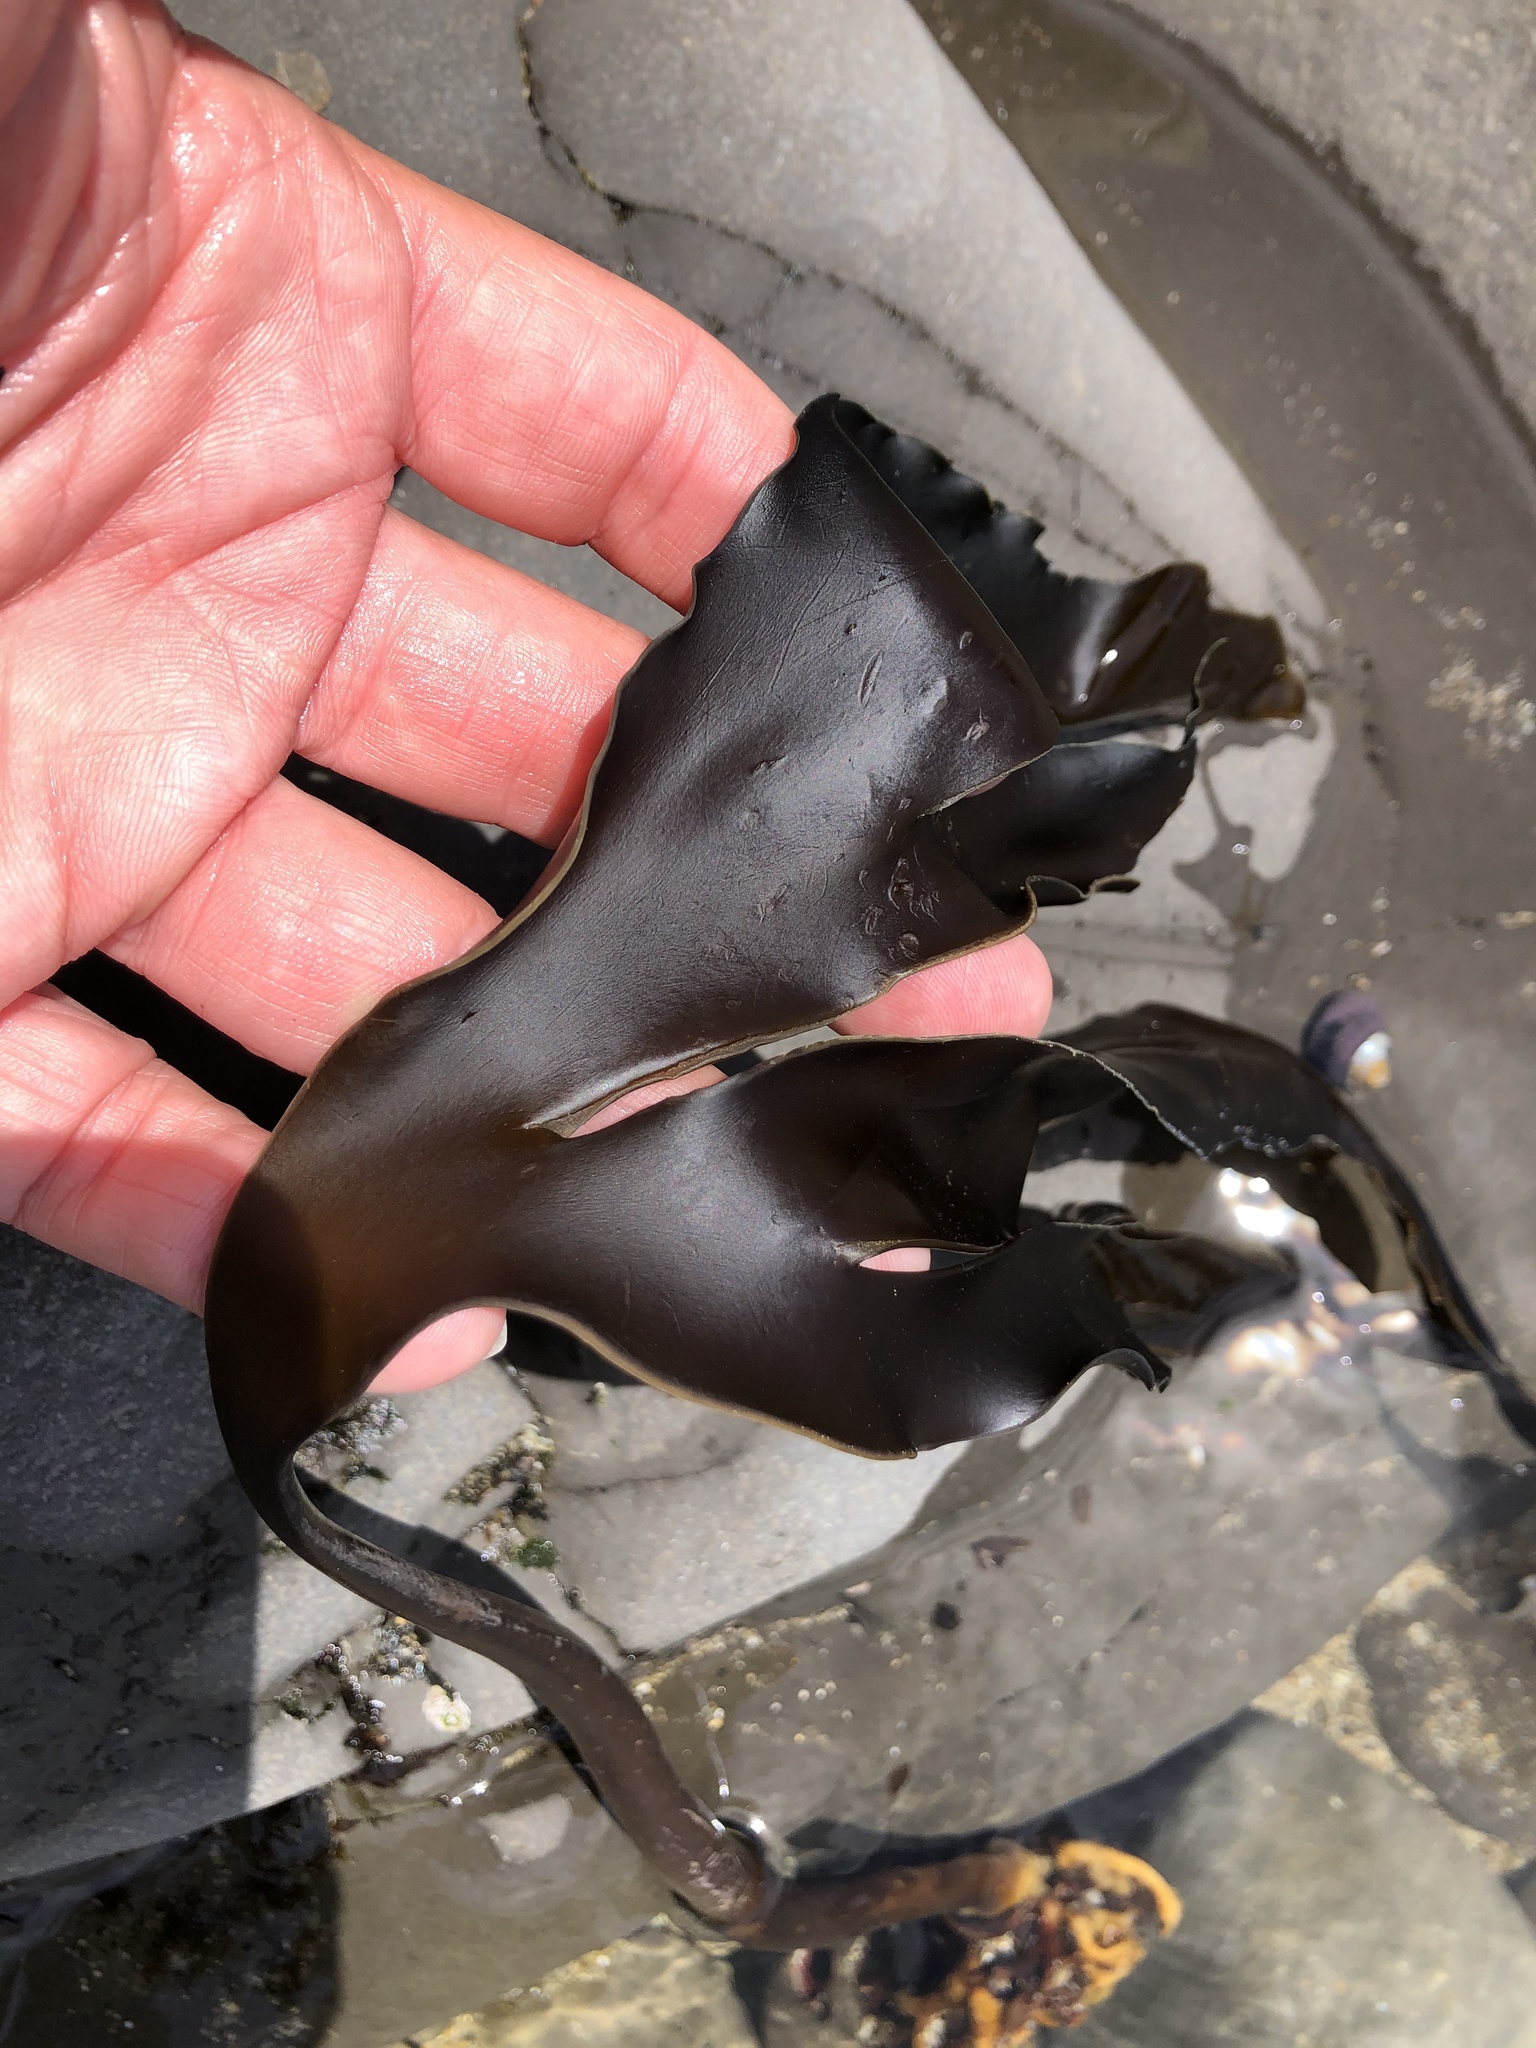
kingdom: Chromista
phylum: Ochrophyta
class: Phaeophyceae
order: Laminariales
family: Laminariaceae
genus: Laminaria
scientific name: Laminaria setchellii
